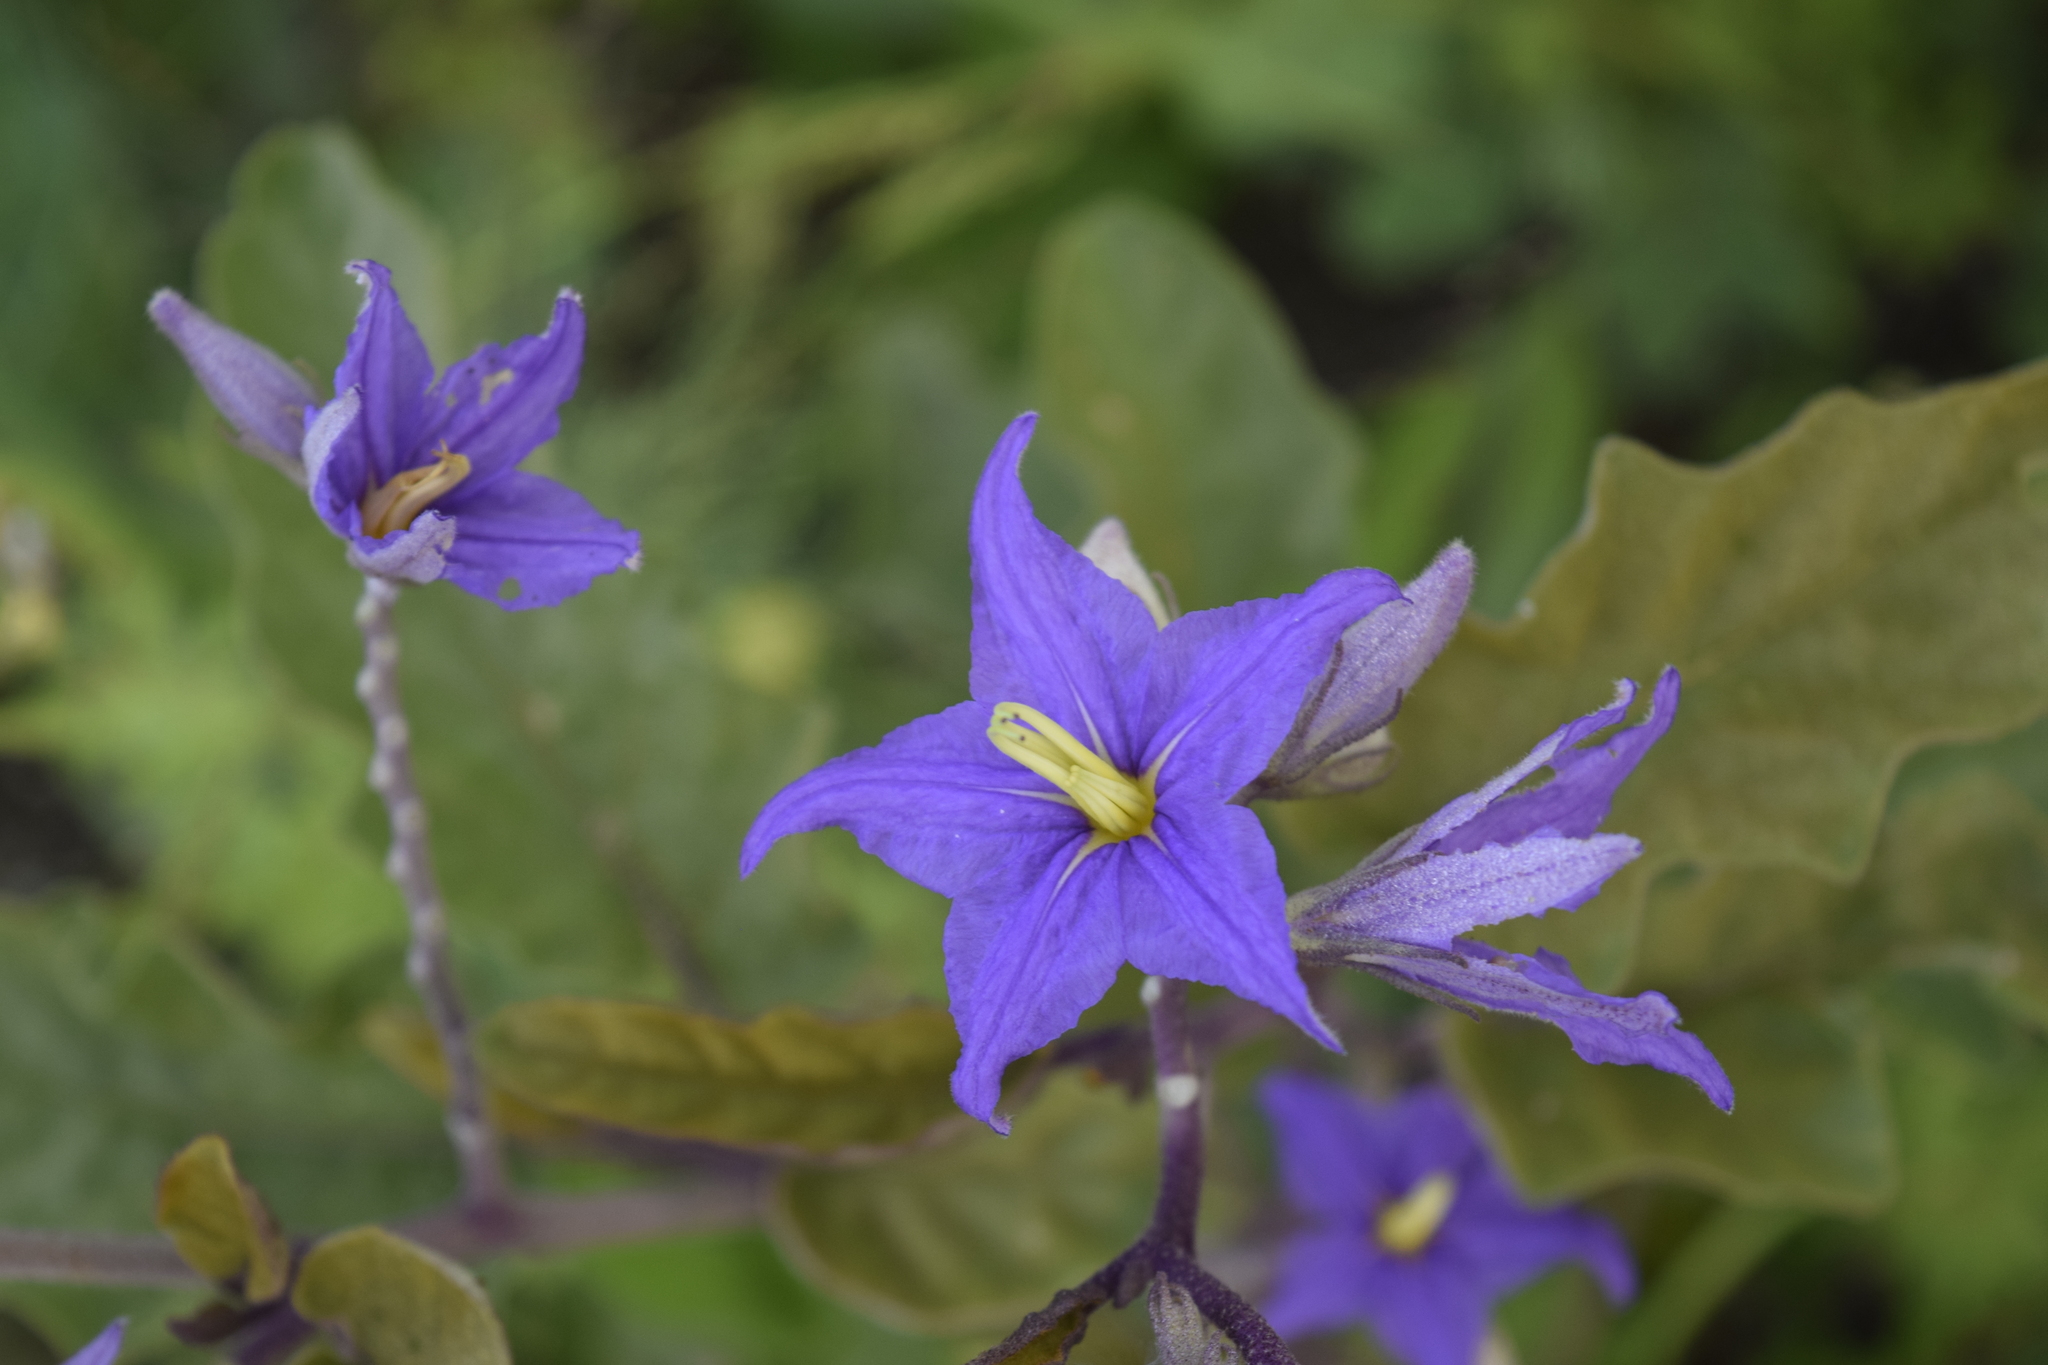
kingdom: Plantae
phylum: Tracheophyta
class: Magnoliopsida
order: Solanales
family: Solanaceae
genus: Solanum
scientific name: Solanum houstonii
